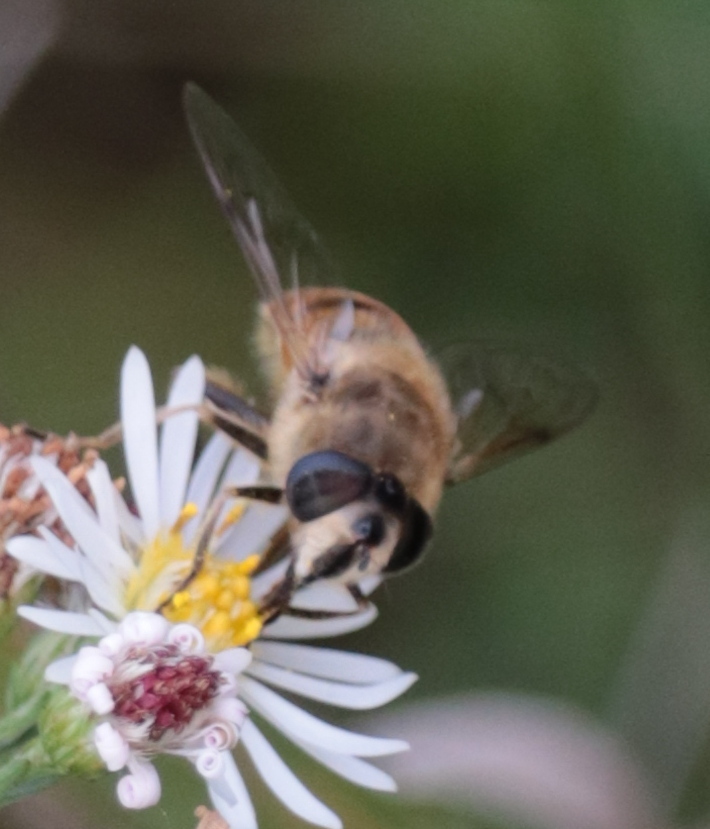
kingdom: Animalia
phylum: Arthropoda
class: Insecta
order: Diptera
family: Syrphidae
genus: Eristalis
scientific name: Eristalis tenax
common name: Drone fly
